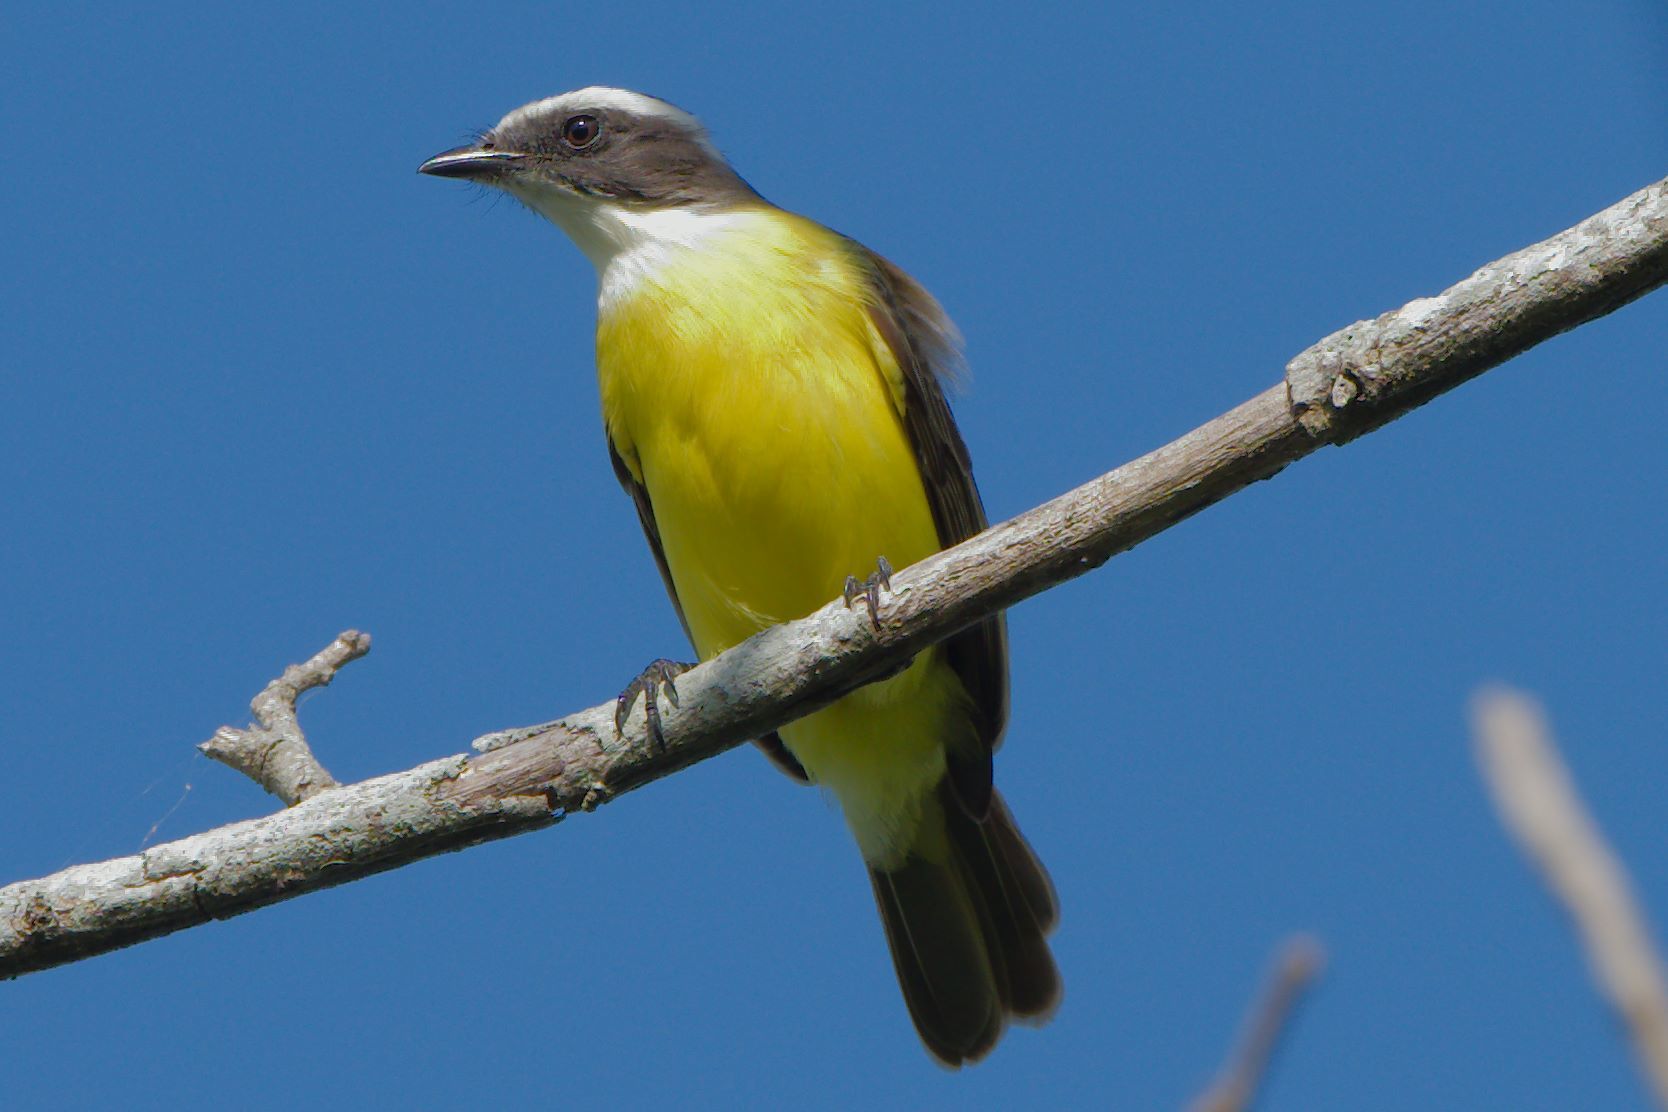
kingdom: Animalia
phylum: Chordata
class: Aves
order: Passeriformes
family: Tyrannidae
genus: Myiozetetes
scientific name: Myiozetetes similis
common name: Social flycatcher
